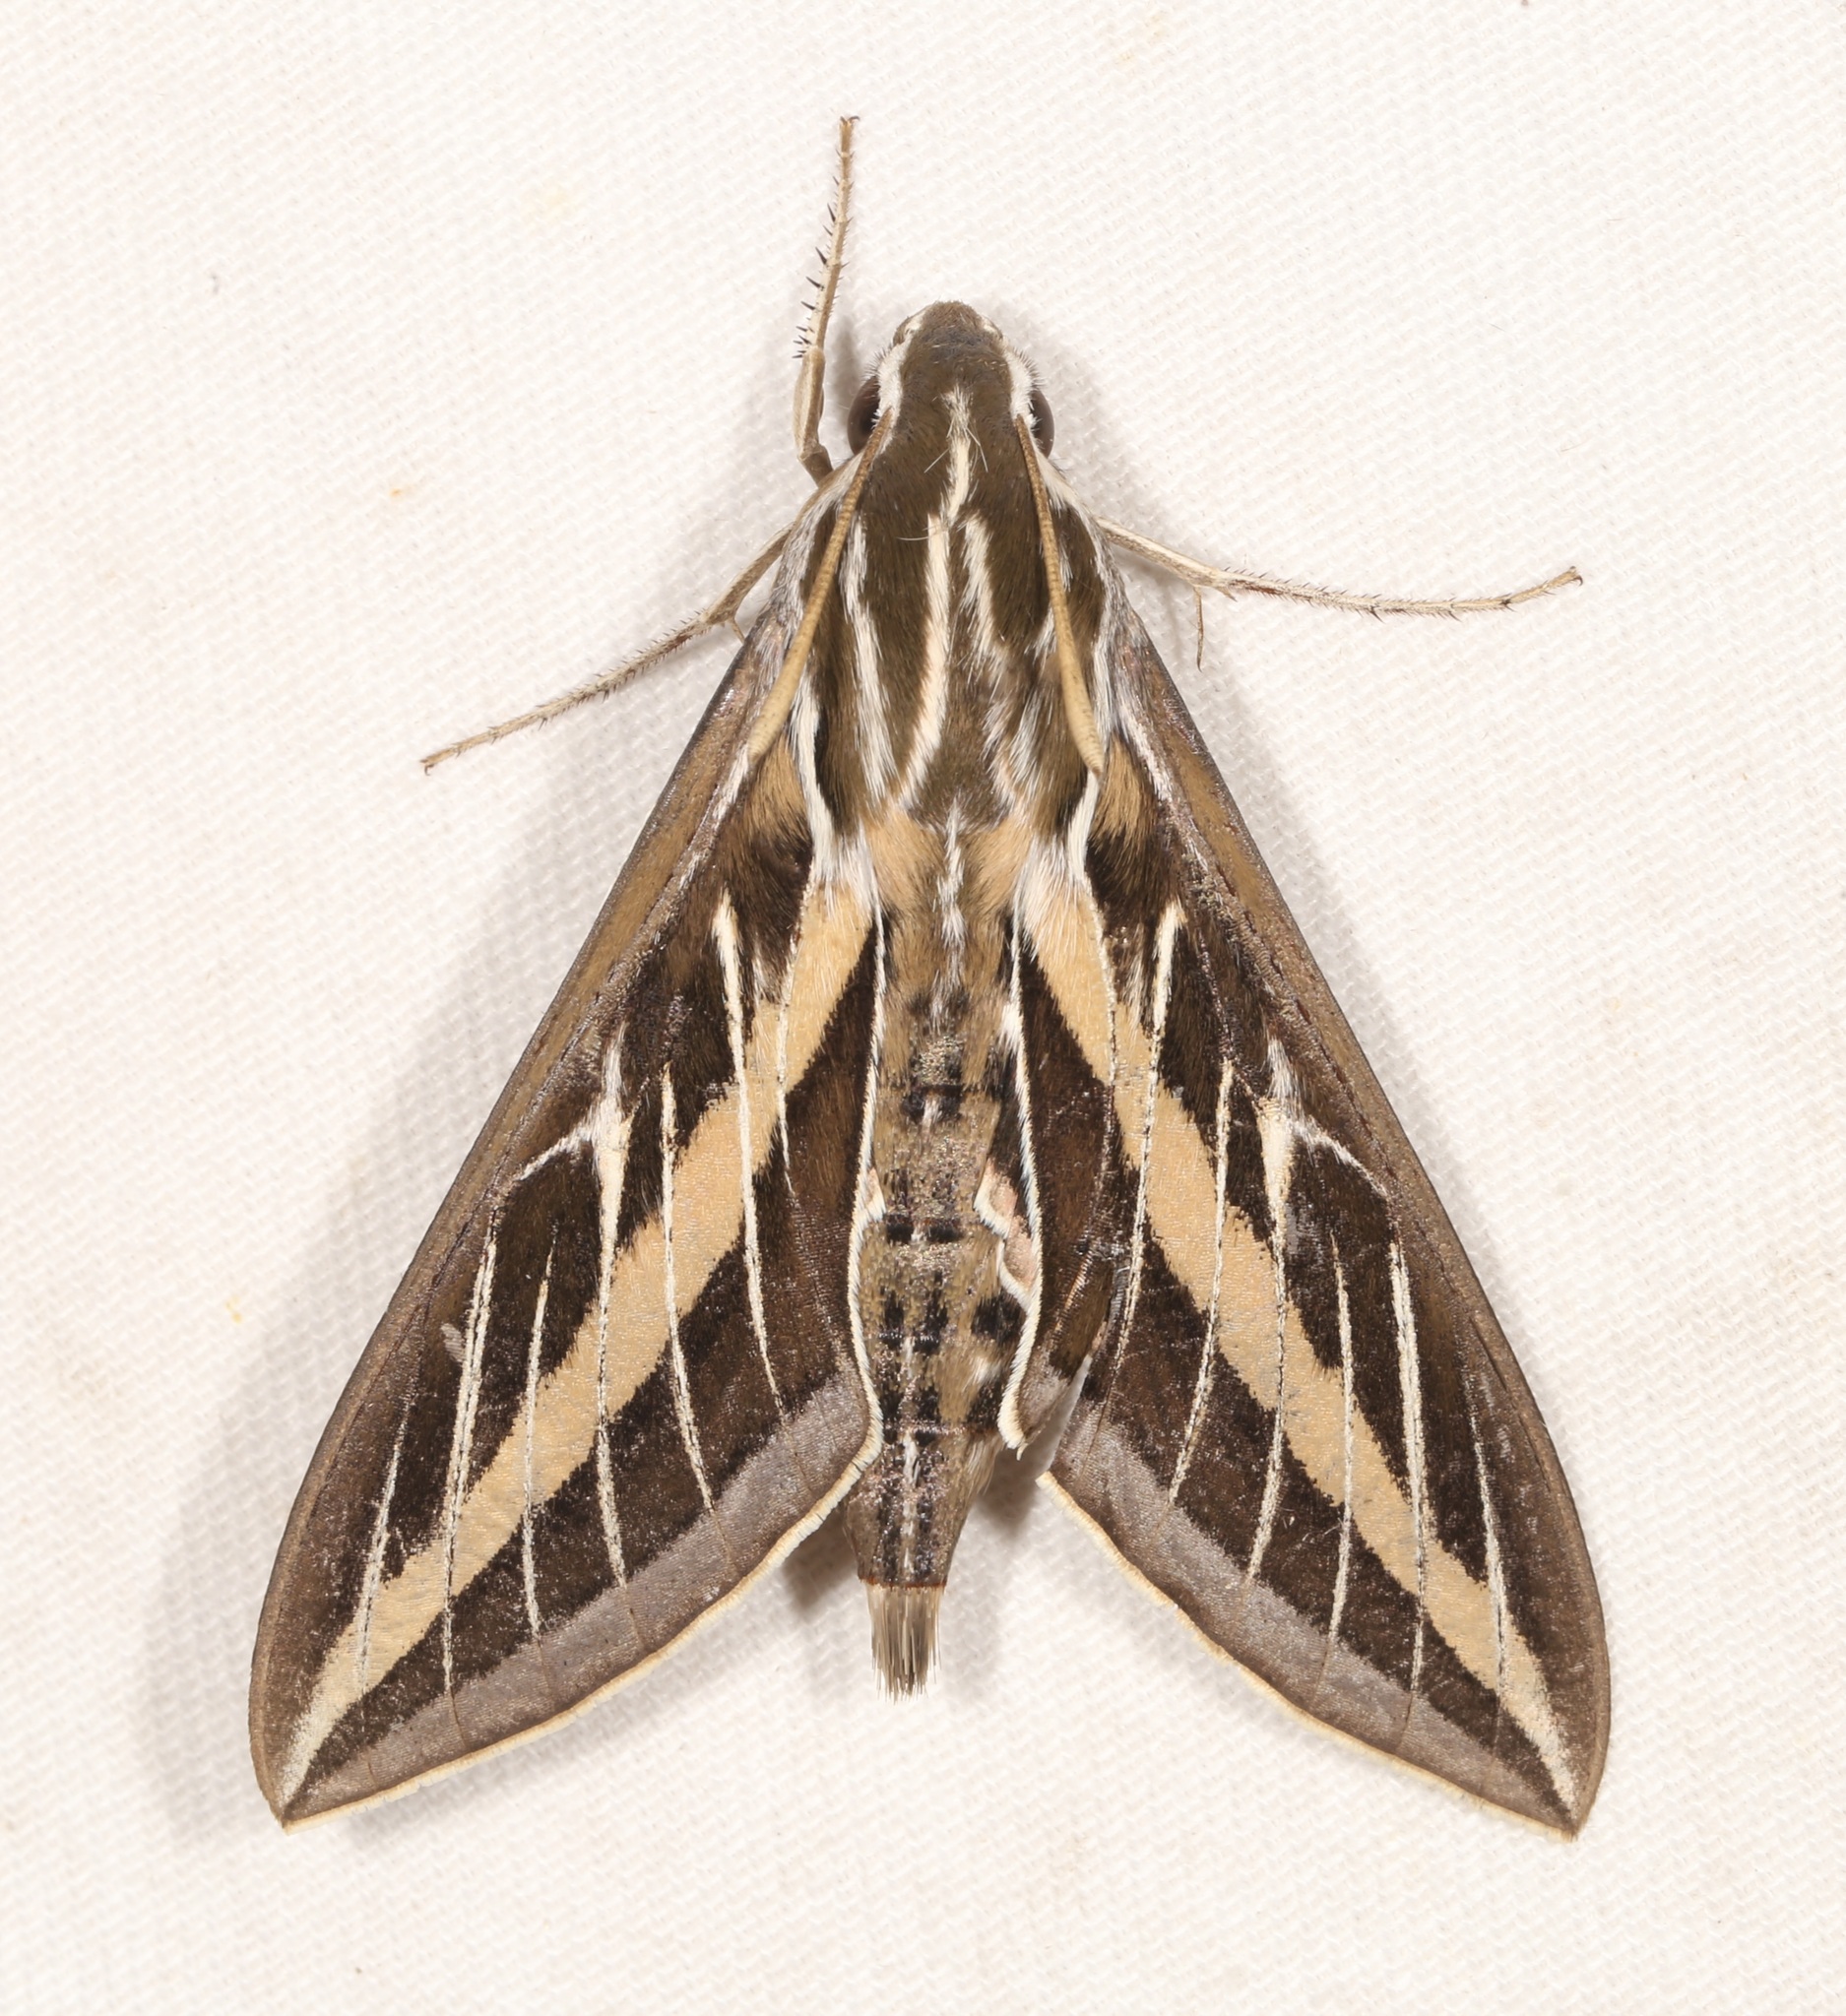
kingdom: Animalia
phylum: Arthropoda
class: Insecta
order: Lepidoptera
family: Sphingidae
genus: Hyles
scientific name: Hyles lineata
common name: White-lined sphinx
